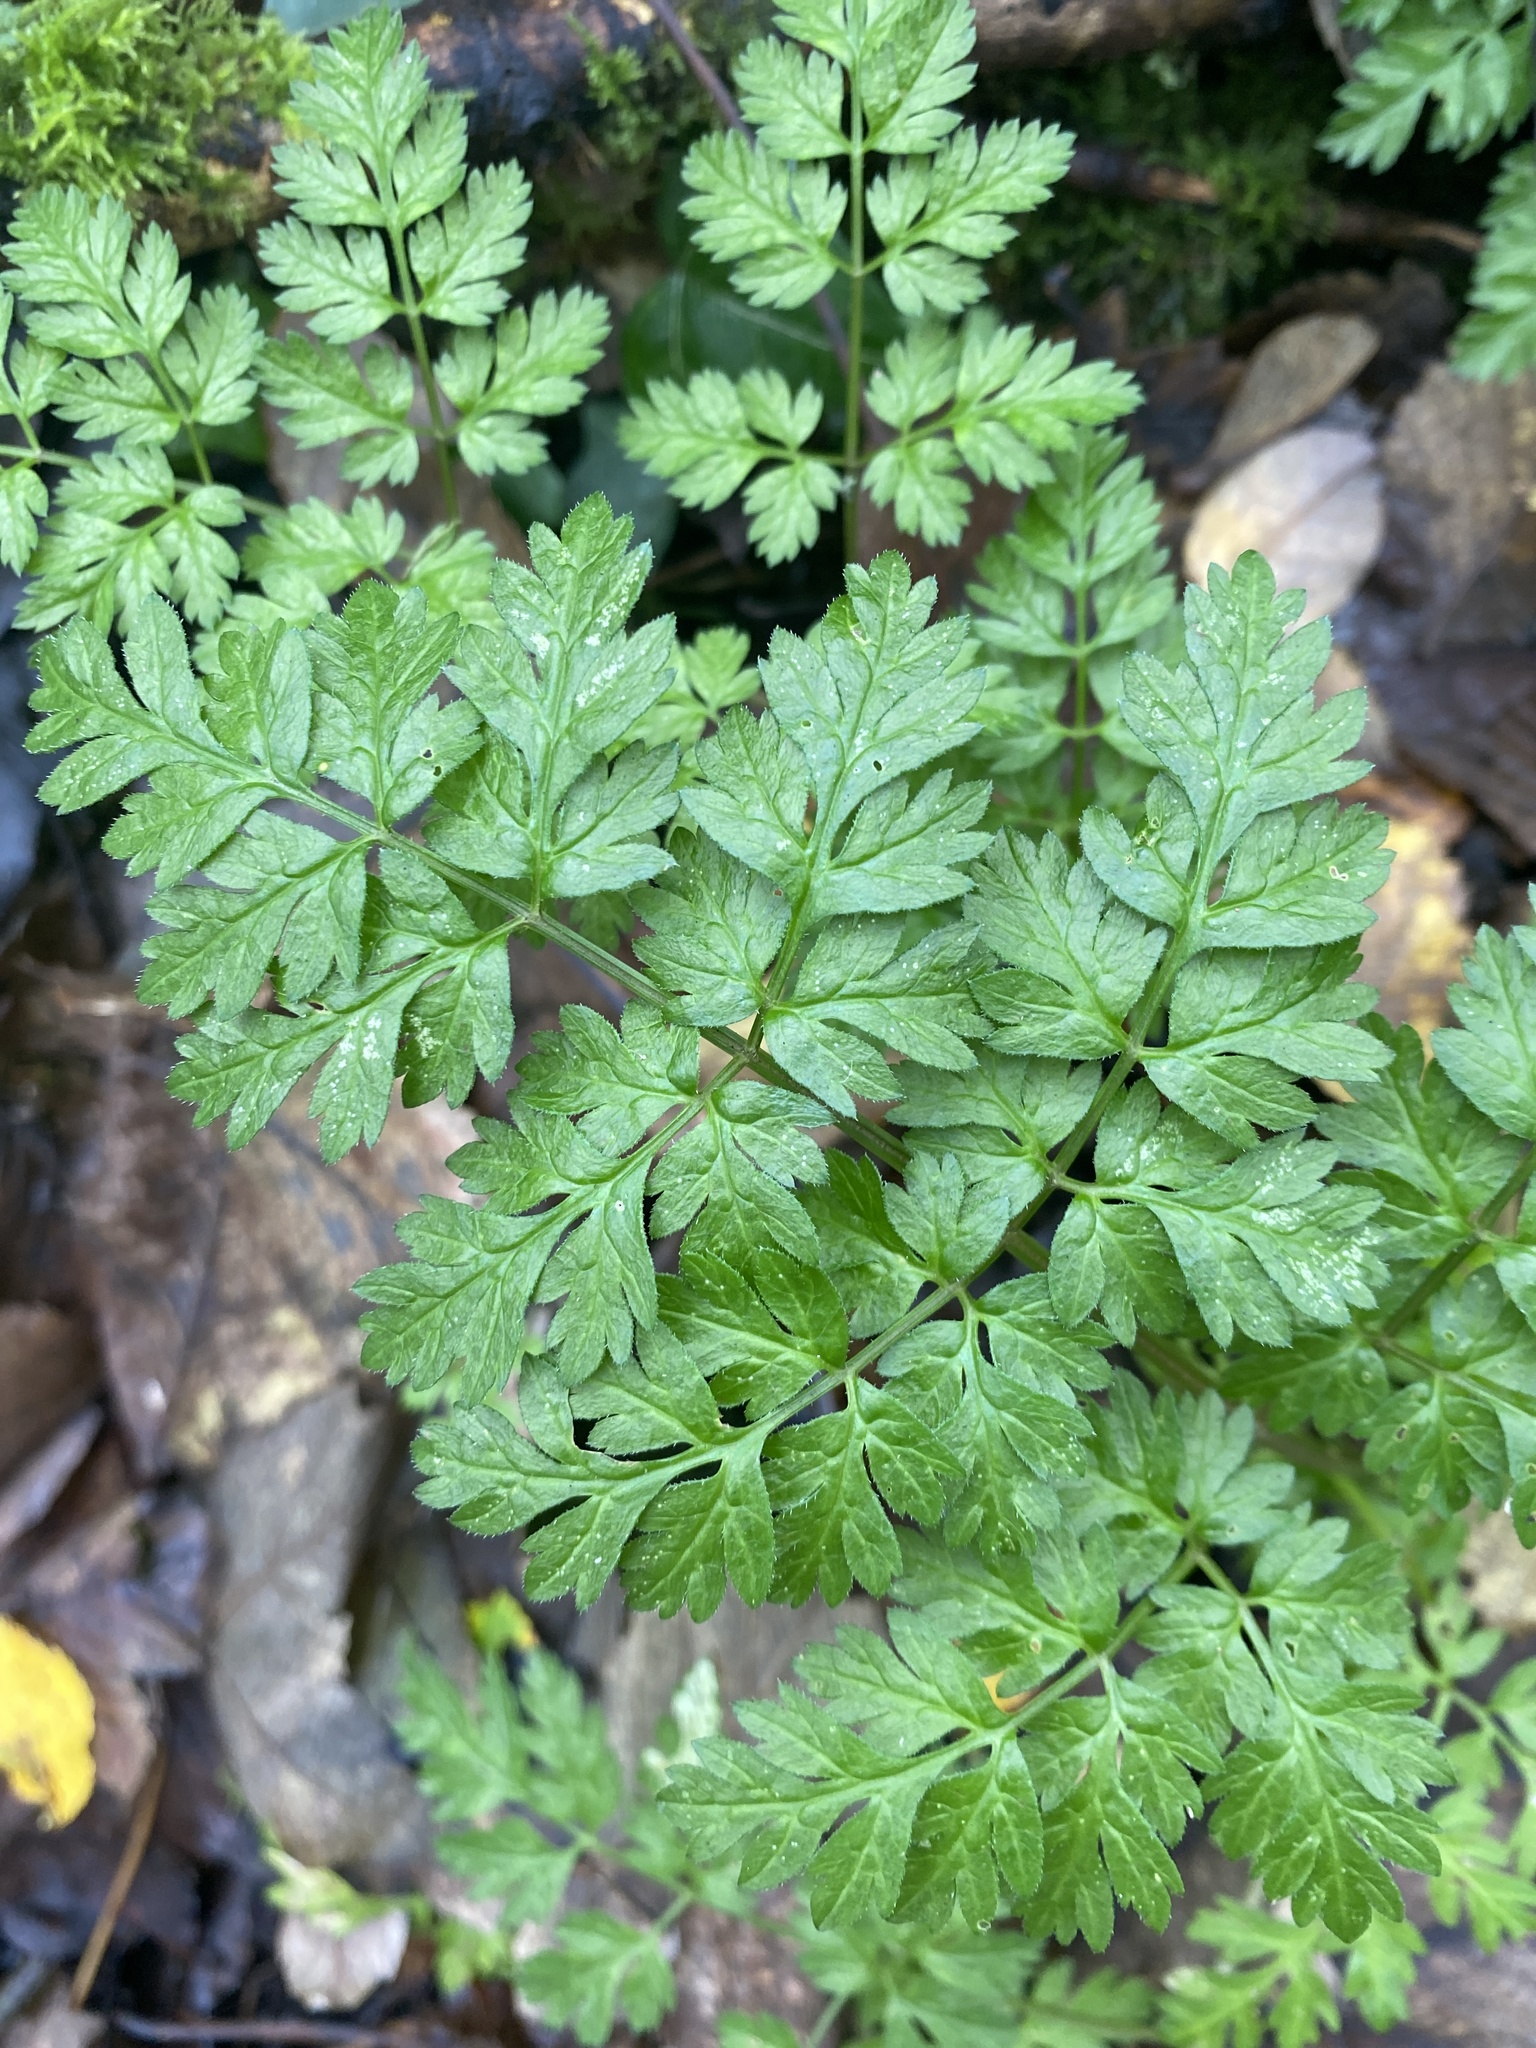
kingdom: Plantae
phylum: Tracheophyta
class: Magnoliopsida
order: Apiales
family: Apiaceae
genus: Anthriscus
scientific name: Anthriscus sylvestris
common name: Cow parsley
